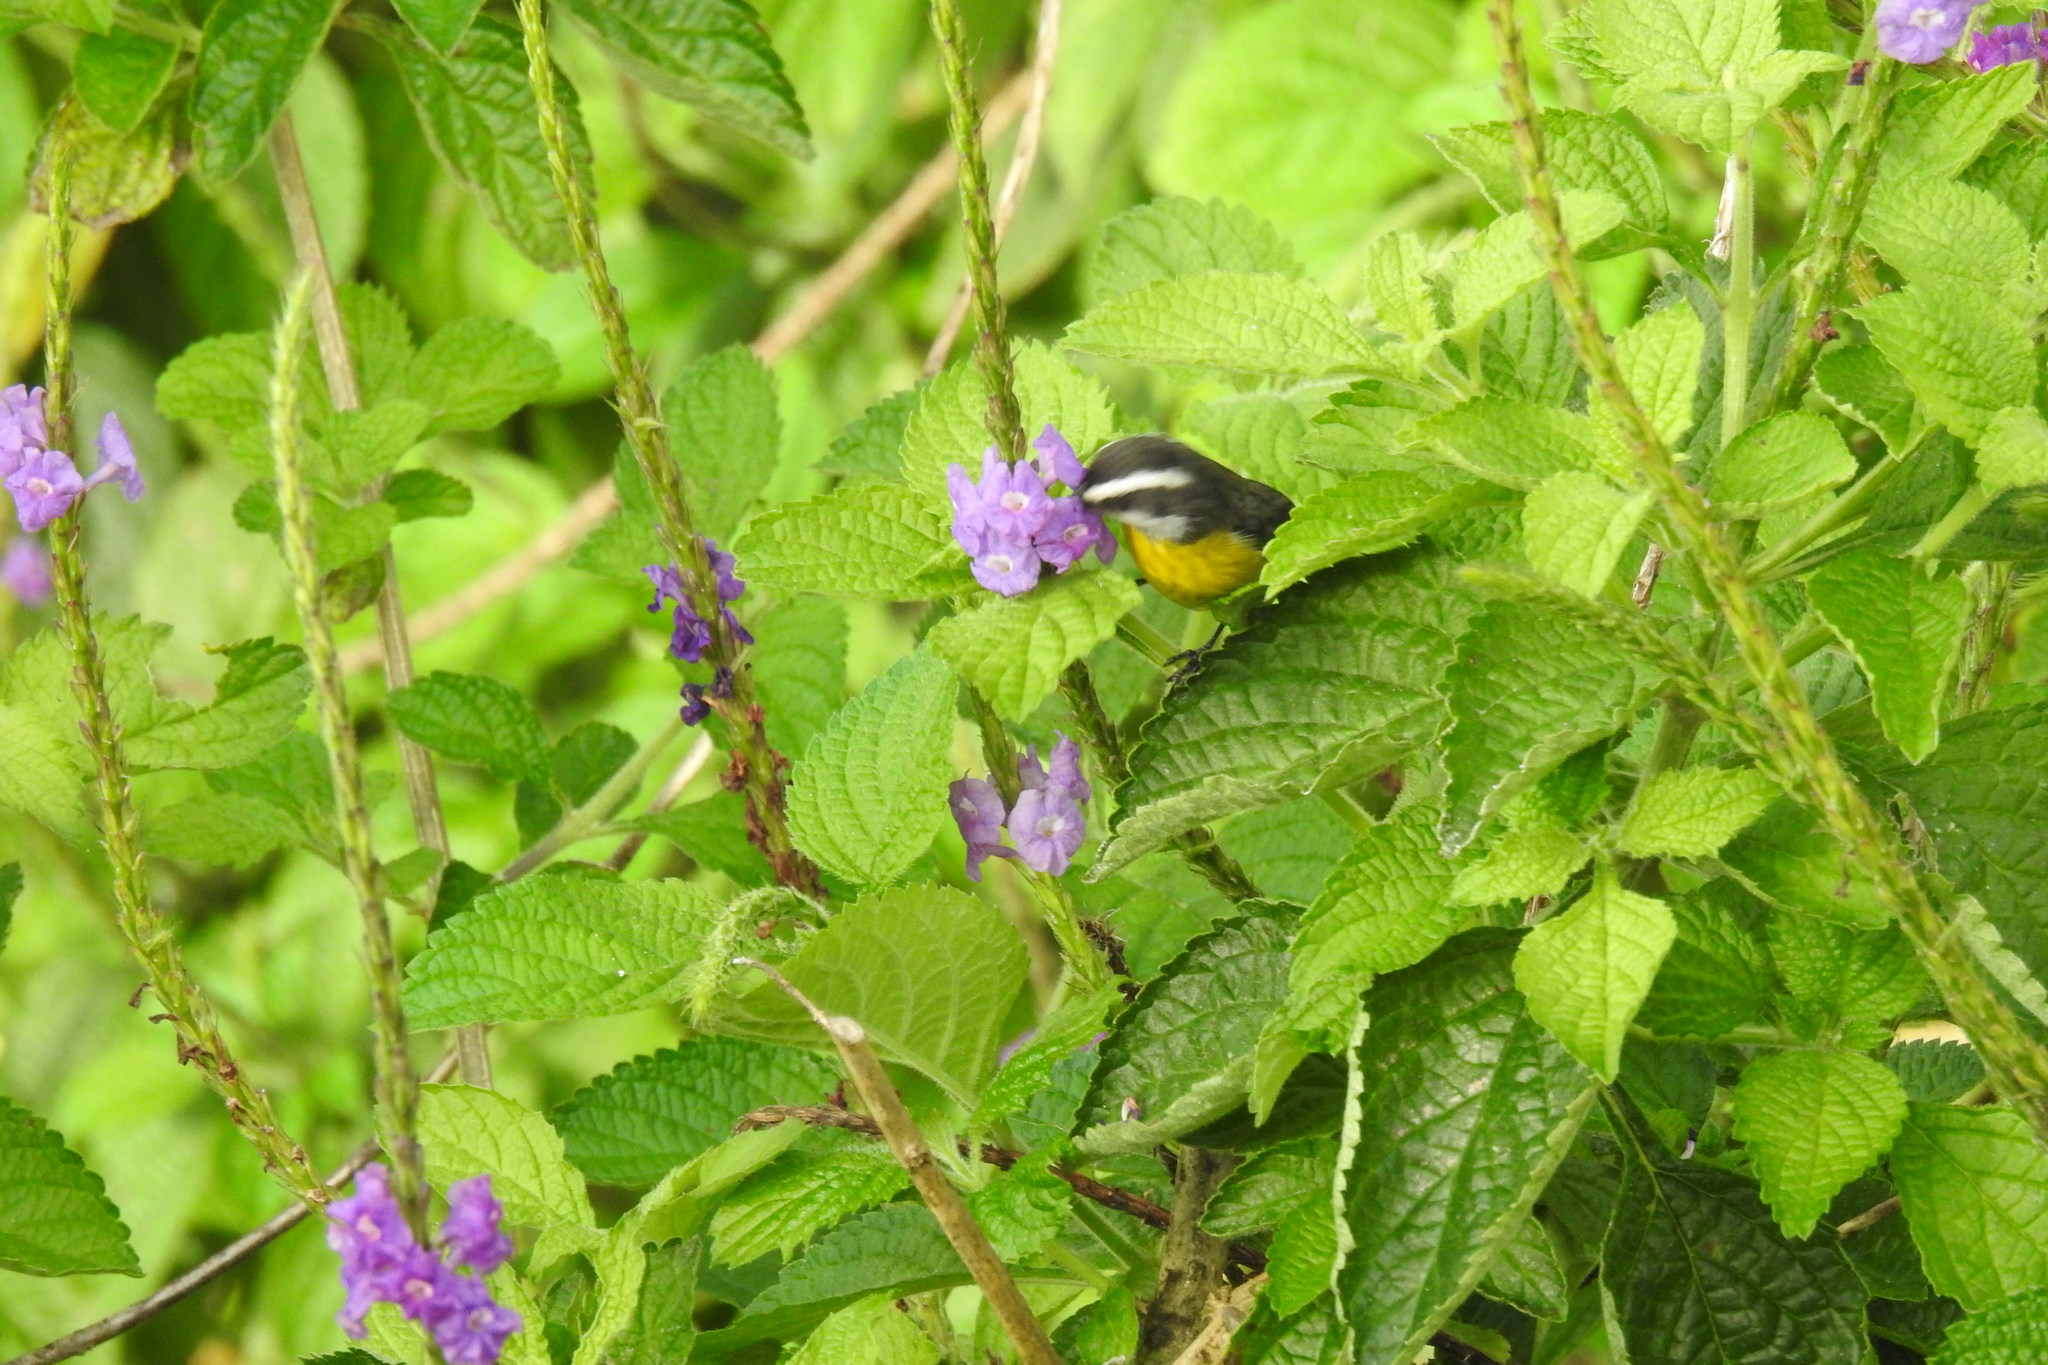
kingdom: Animalia
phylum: Chordata
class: Aves
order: Passeriformes
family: Thraupidae
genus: Coereba
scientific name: Coereba flaveola
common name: Bananaquit
